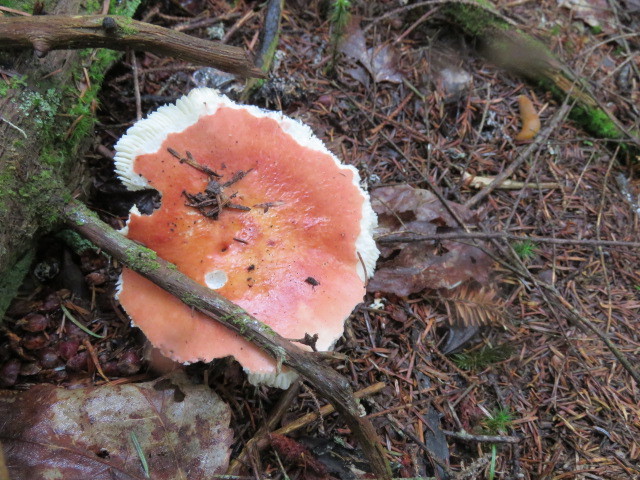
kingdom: Fungi
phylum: Basidiomycota
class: Agaricomycetes
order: Russulales
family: Russulaceae
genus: Russula
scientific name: Russula
